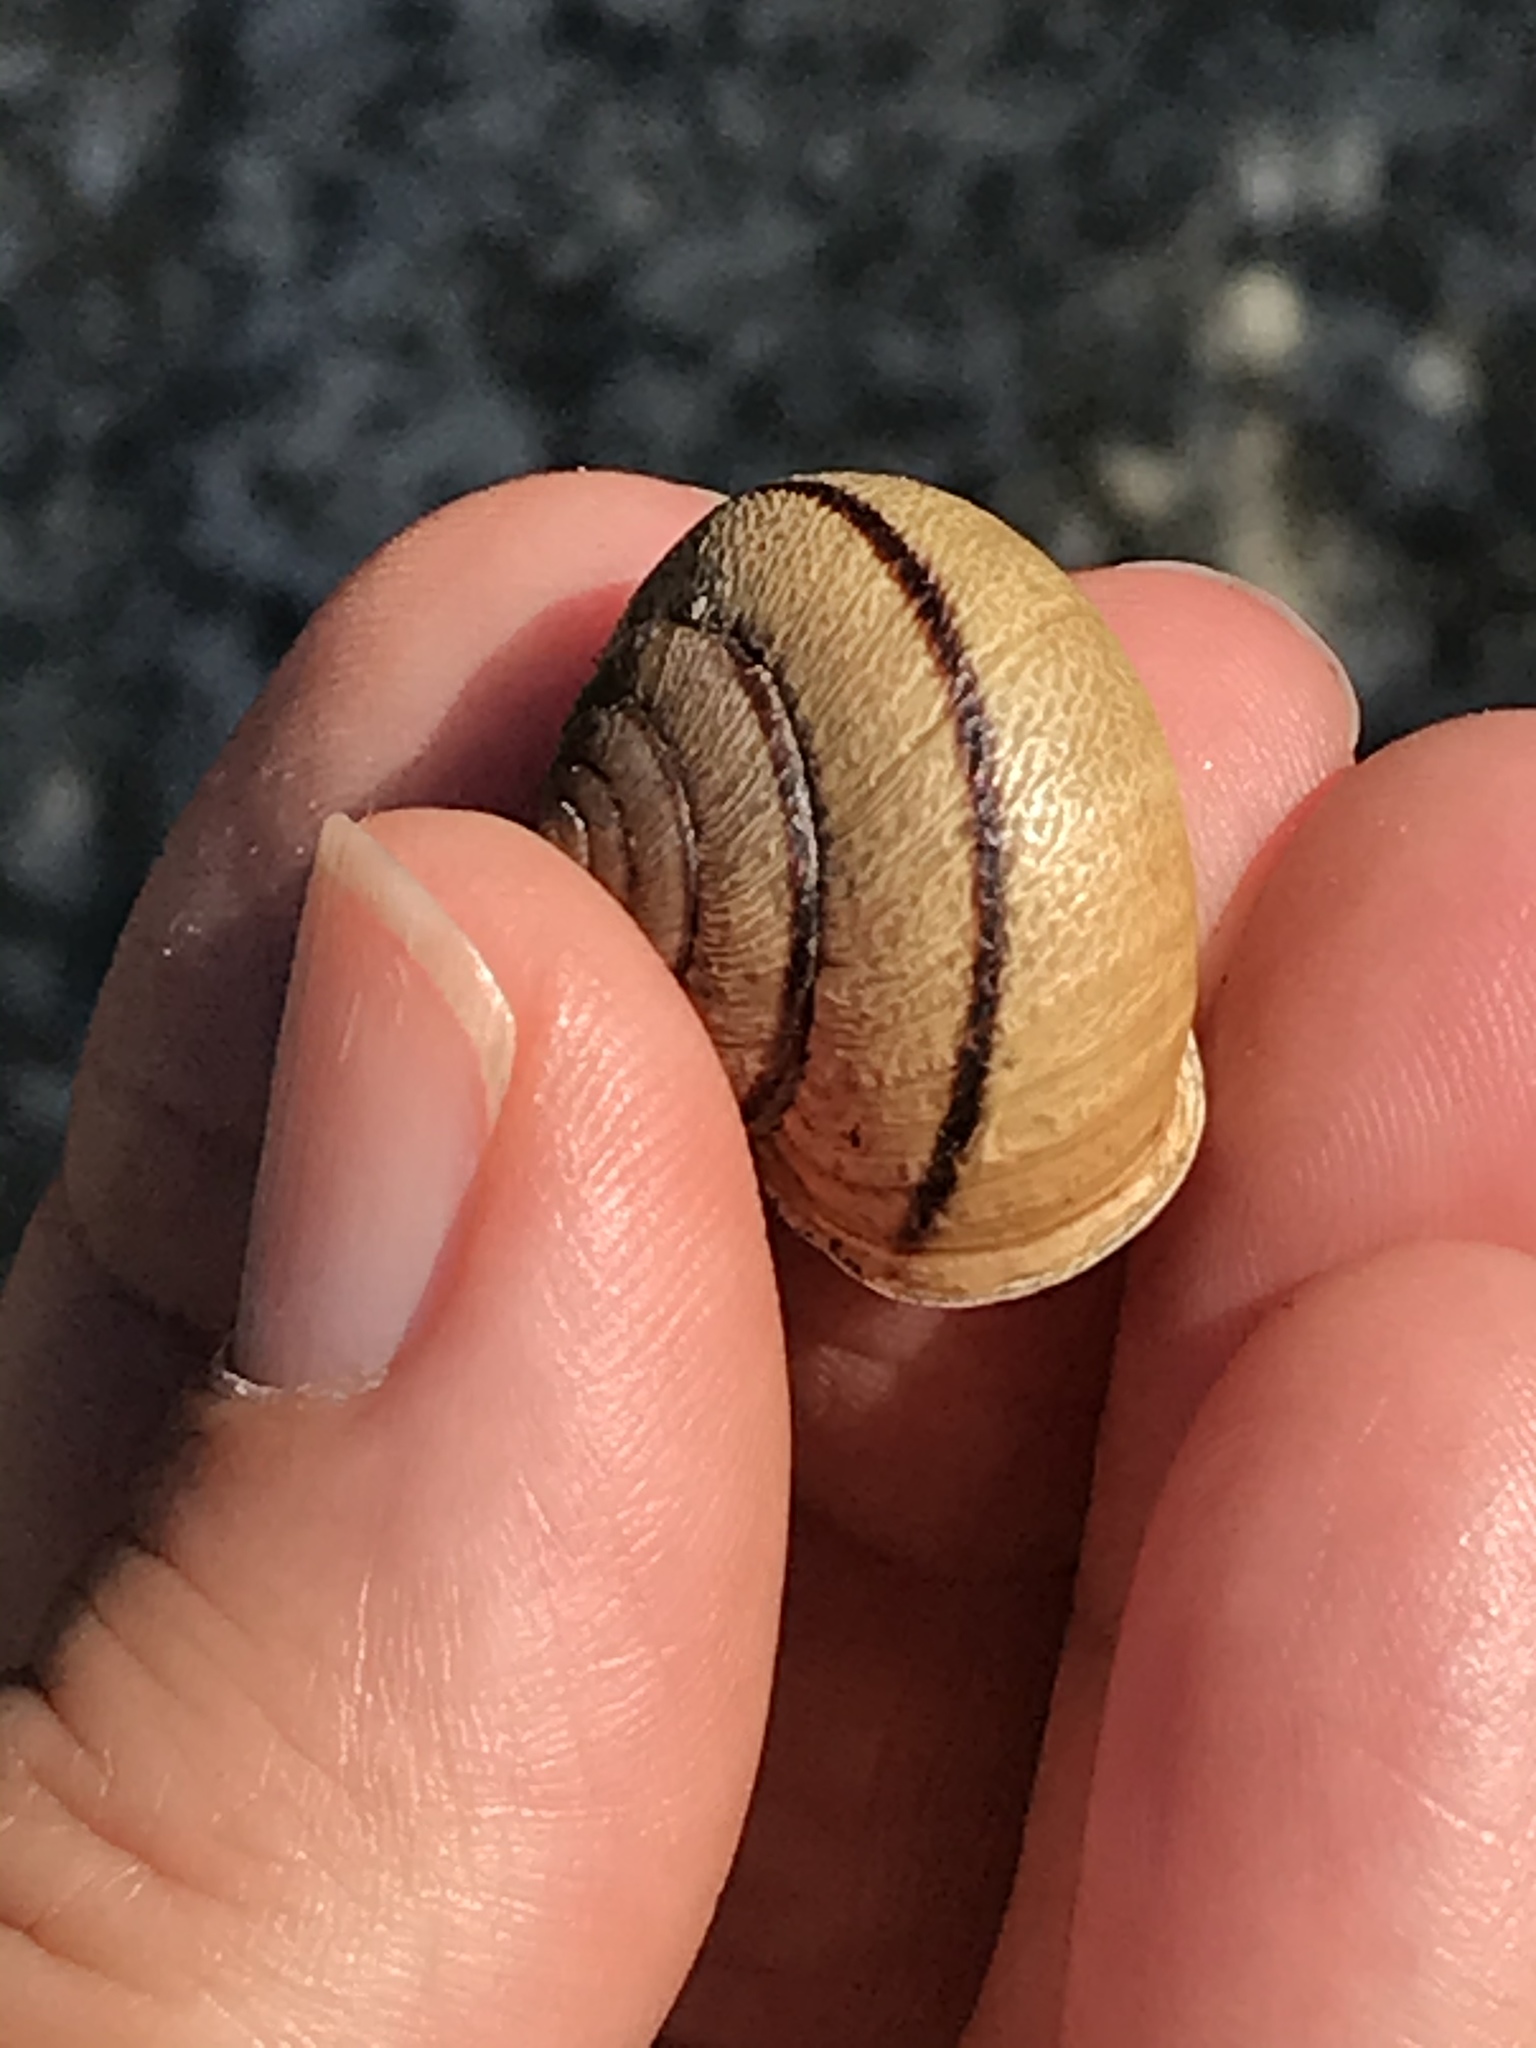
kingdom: Animalia
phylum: Mollusca
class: Gastropoda
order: Stylommatophora
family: Xanthonychidae
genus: Helminthoglypta
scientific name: Helminthoglypta stiversiana
